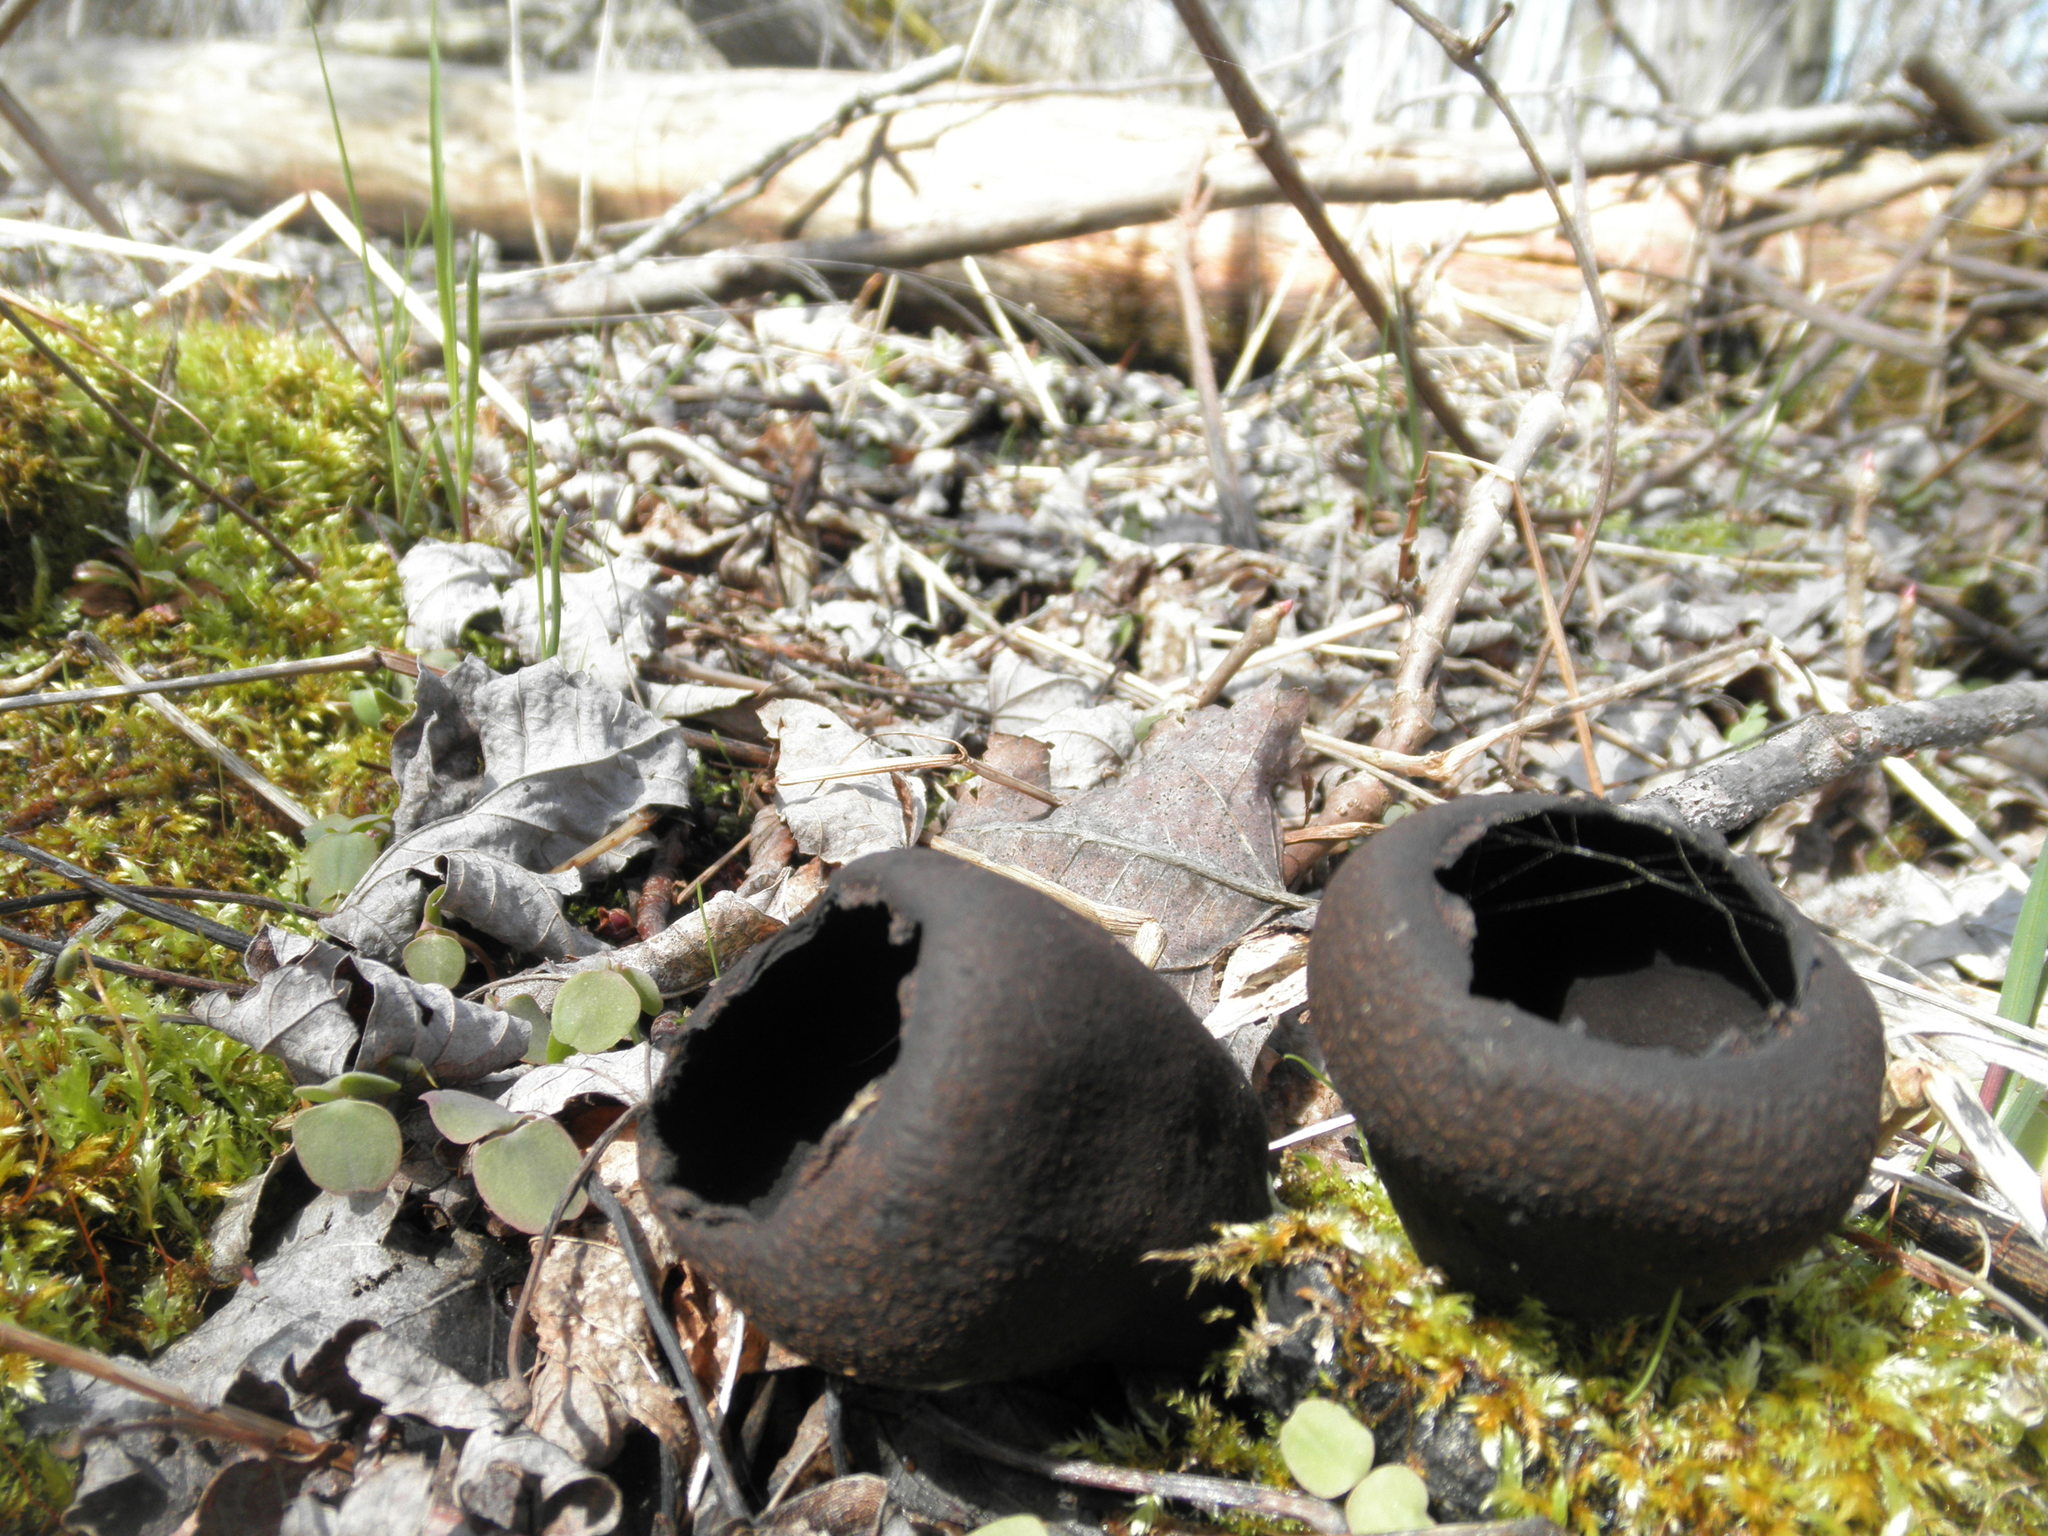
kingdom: Fungi
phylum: Ascomycota
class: Pezizomycetes
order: Pezizales
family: Sarcosomataceae
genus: Urnula
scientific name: Urnula craterium
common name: Devil's urn
